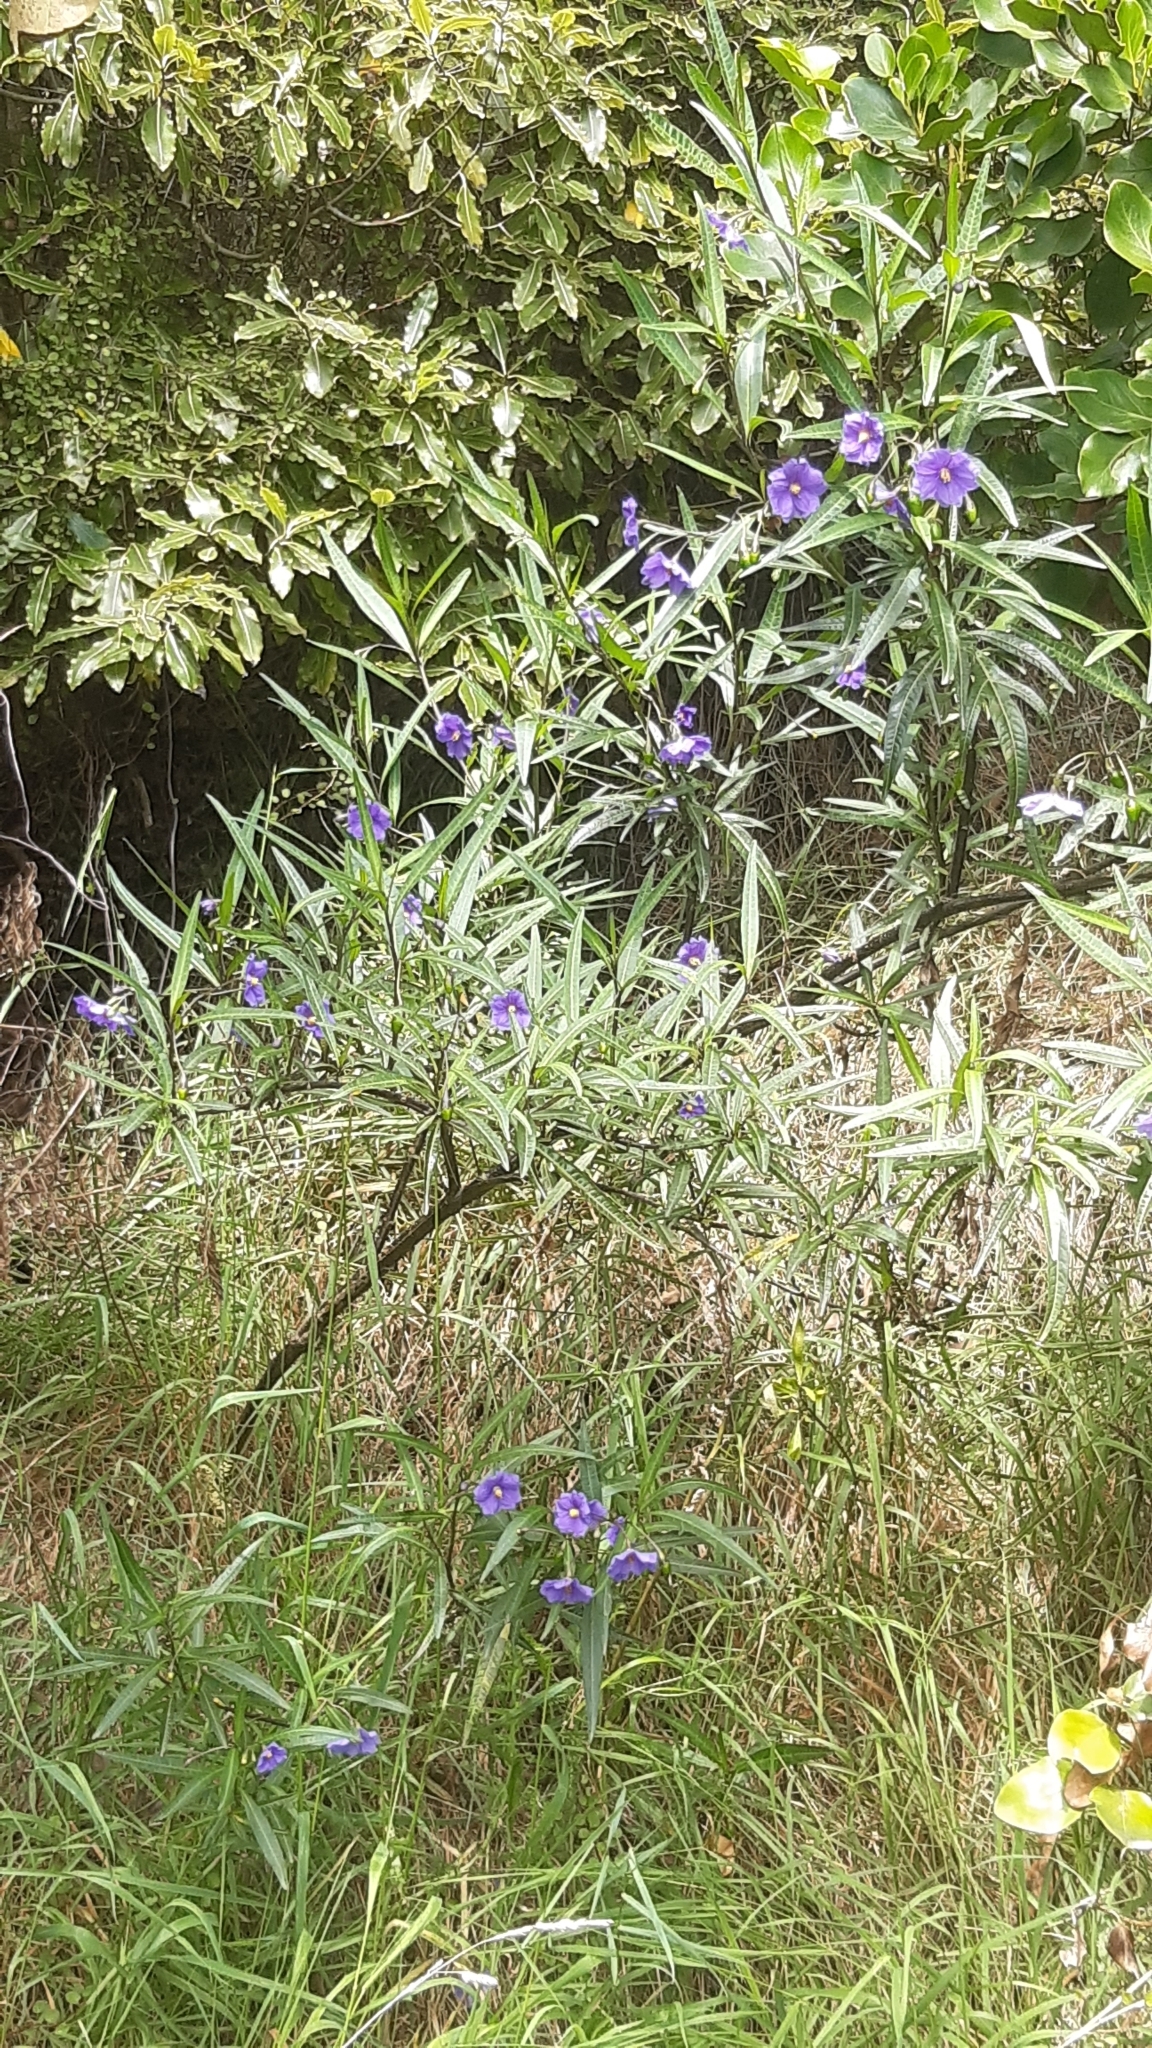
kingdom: Plantae
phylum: Tracheophyta
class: Magnoliopsida
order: Solanales
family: Solanaceae
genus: Solanum
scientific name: Solanum laciniatum
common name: Kangaroo-apple
